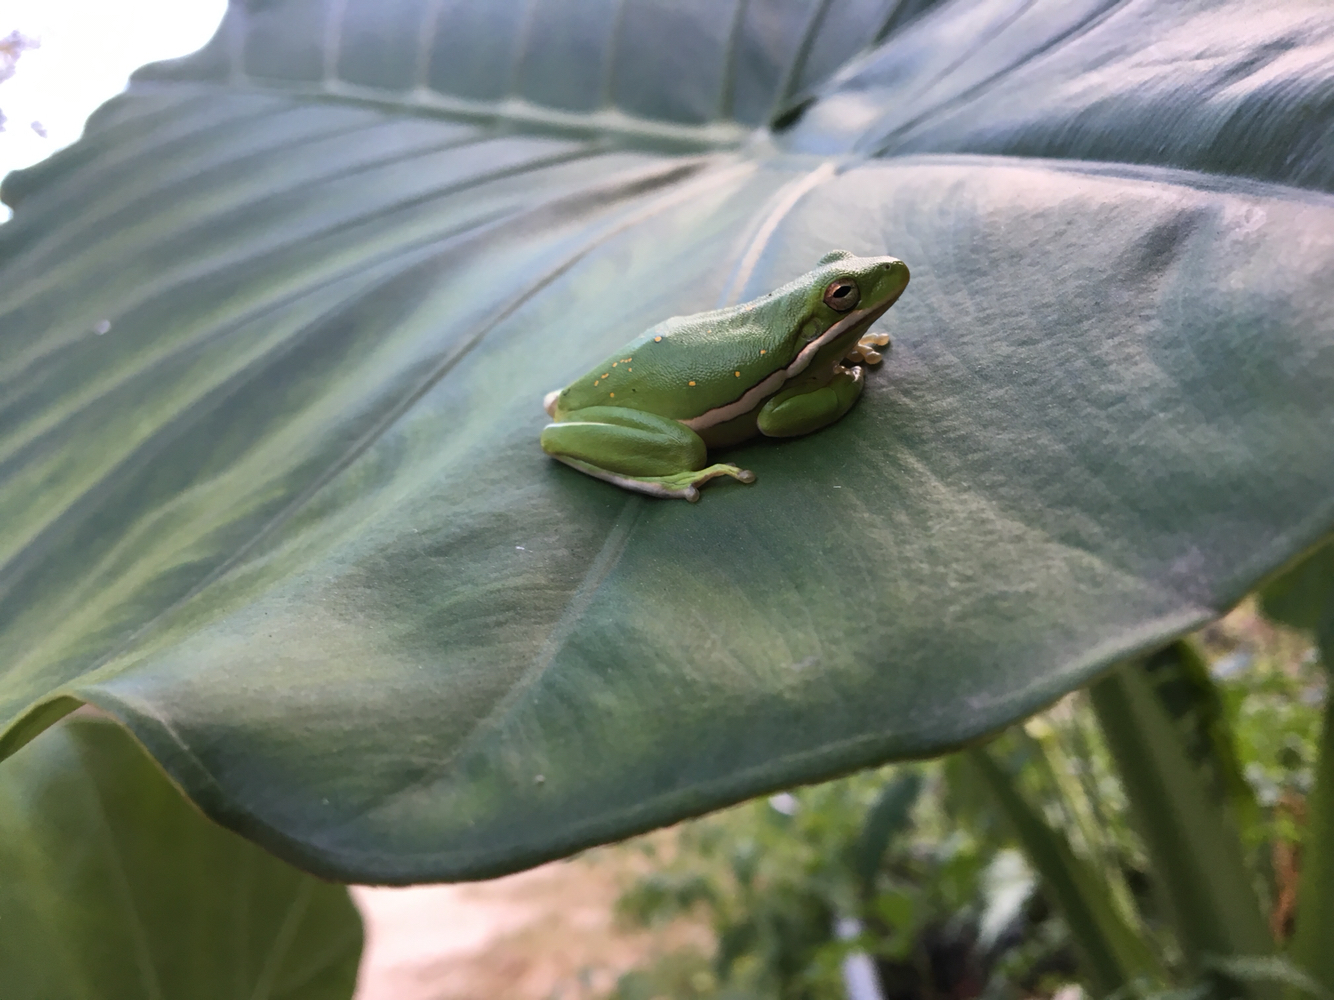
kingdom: Animalia
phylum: Chordata
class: Amphibia
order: Anura
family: Hylidae
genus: Dryophytes
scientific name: Dryophytes cinereus
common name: Green treefrog
